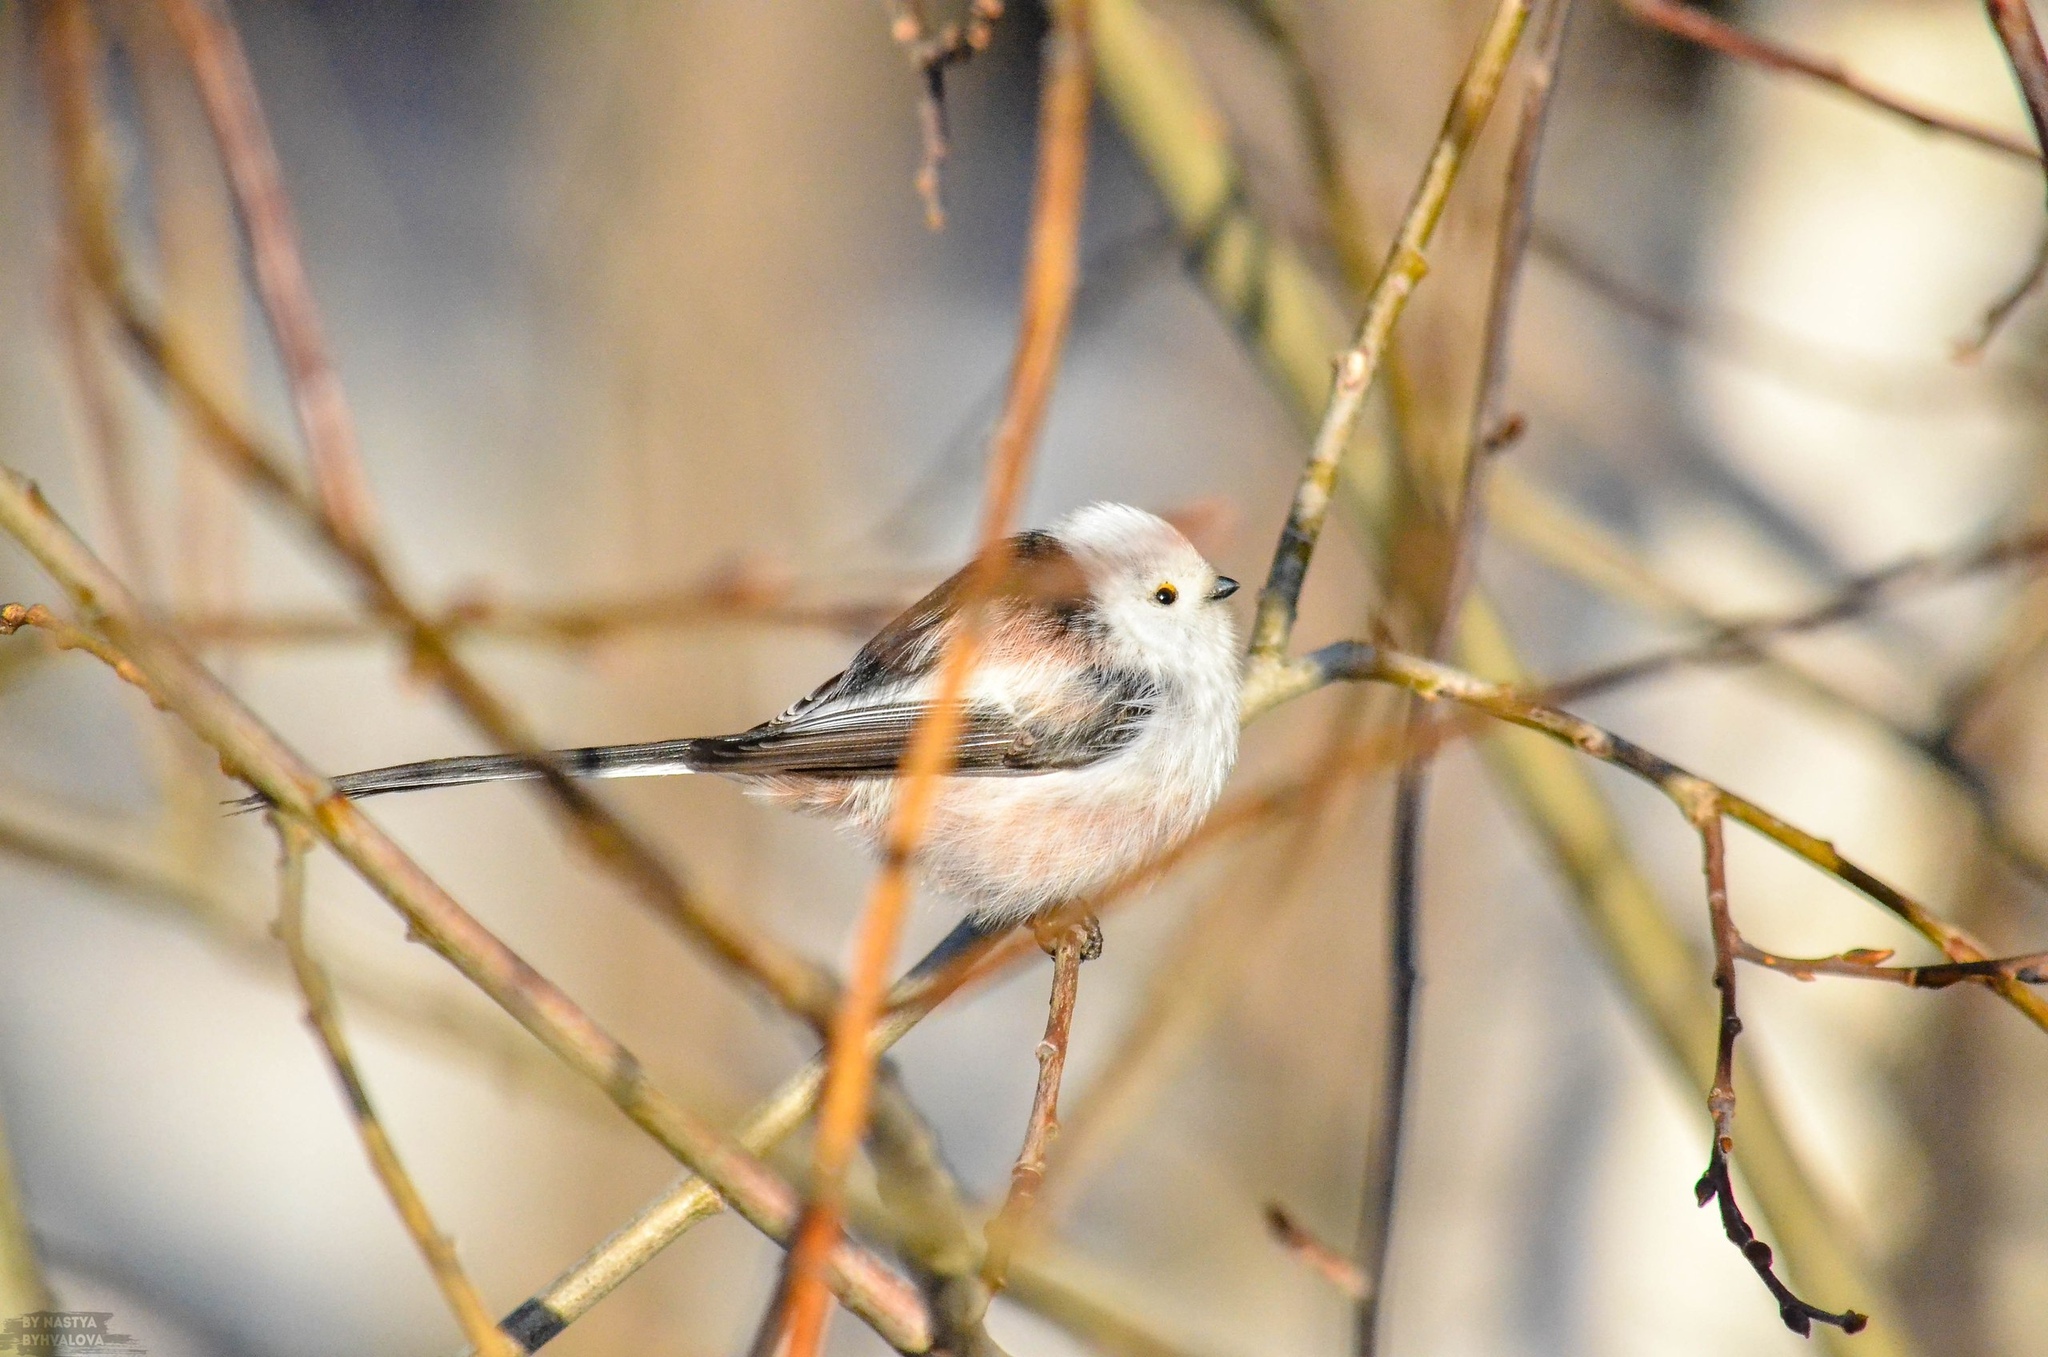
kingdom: Animalia
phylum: Chordata
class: Aves
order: Passeriformes
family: Aegithalidae
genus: Aegithalos
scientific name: Aegithalos caudatus
